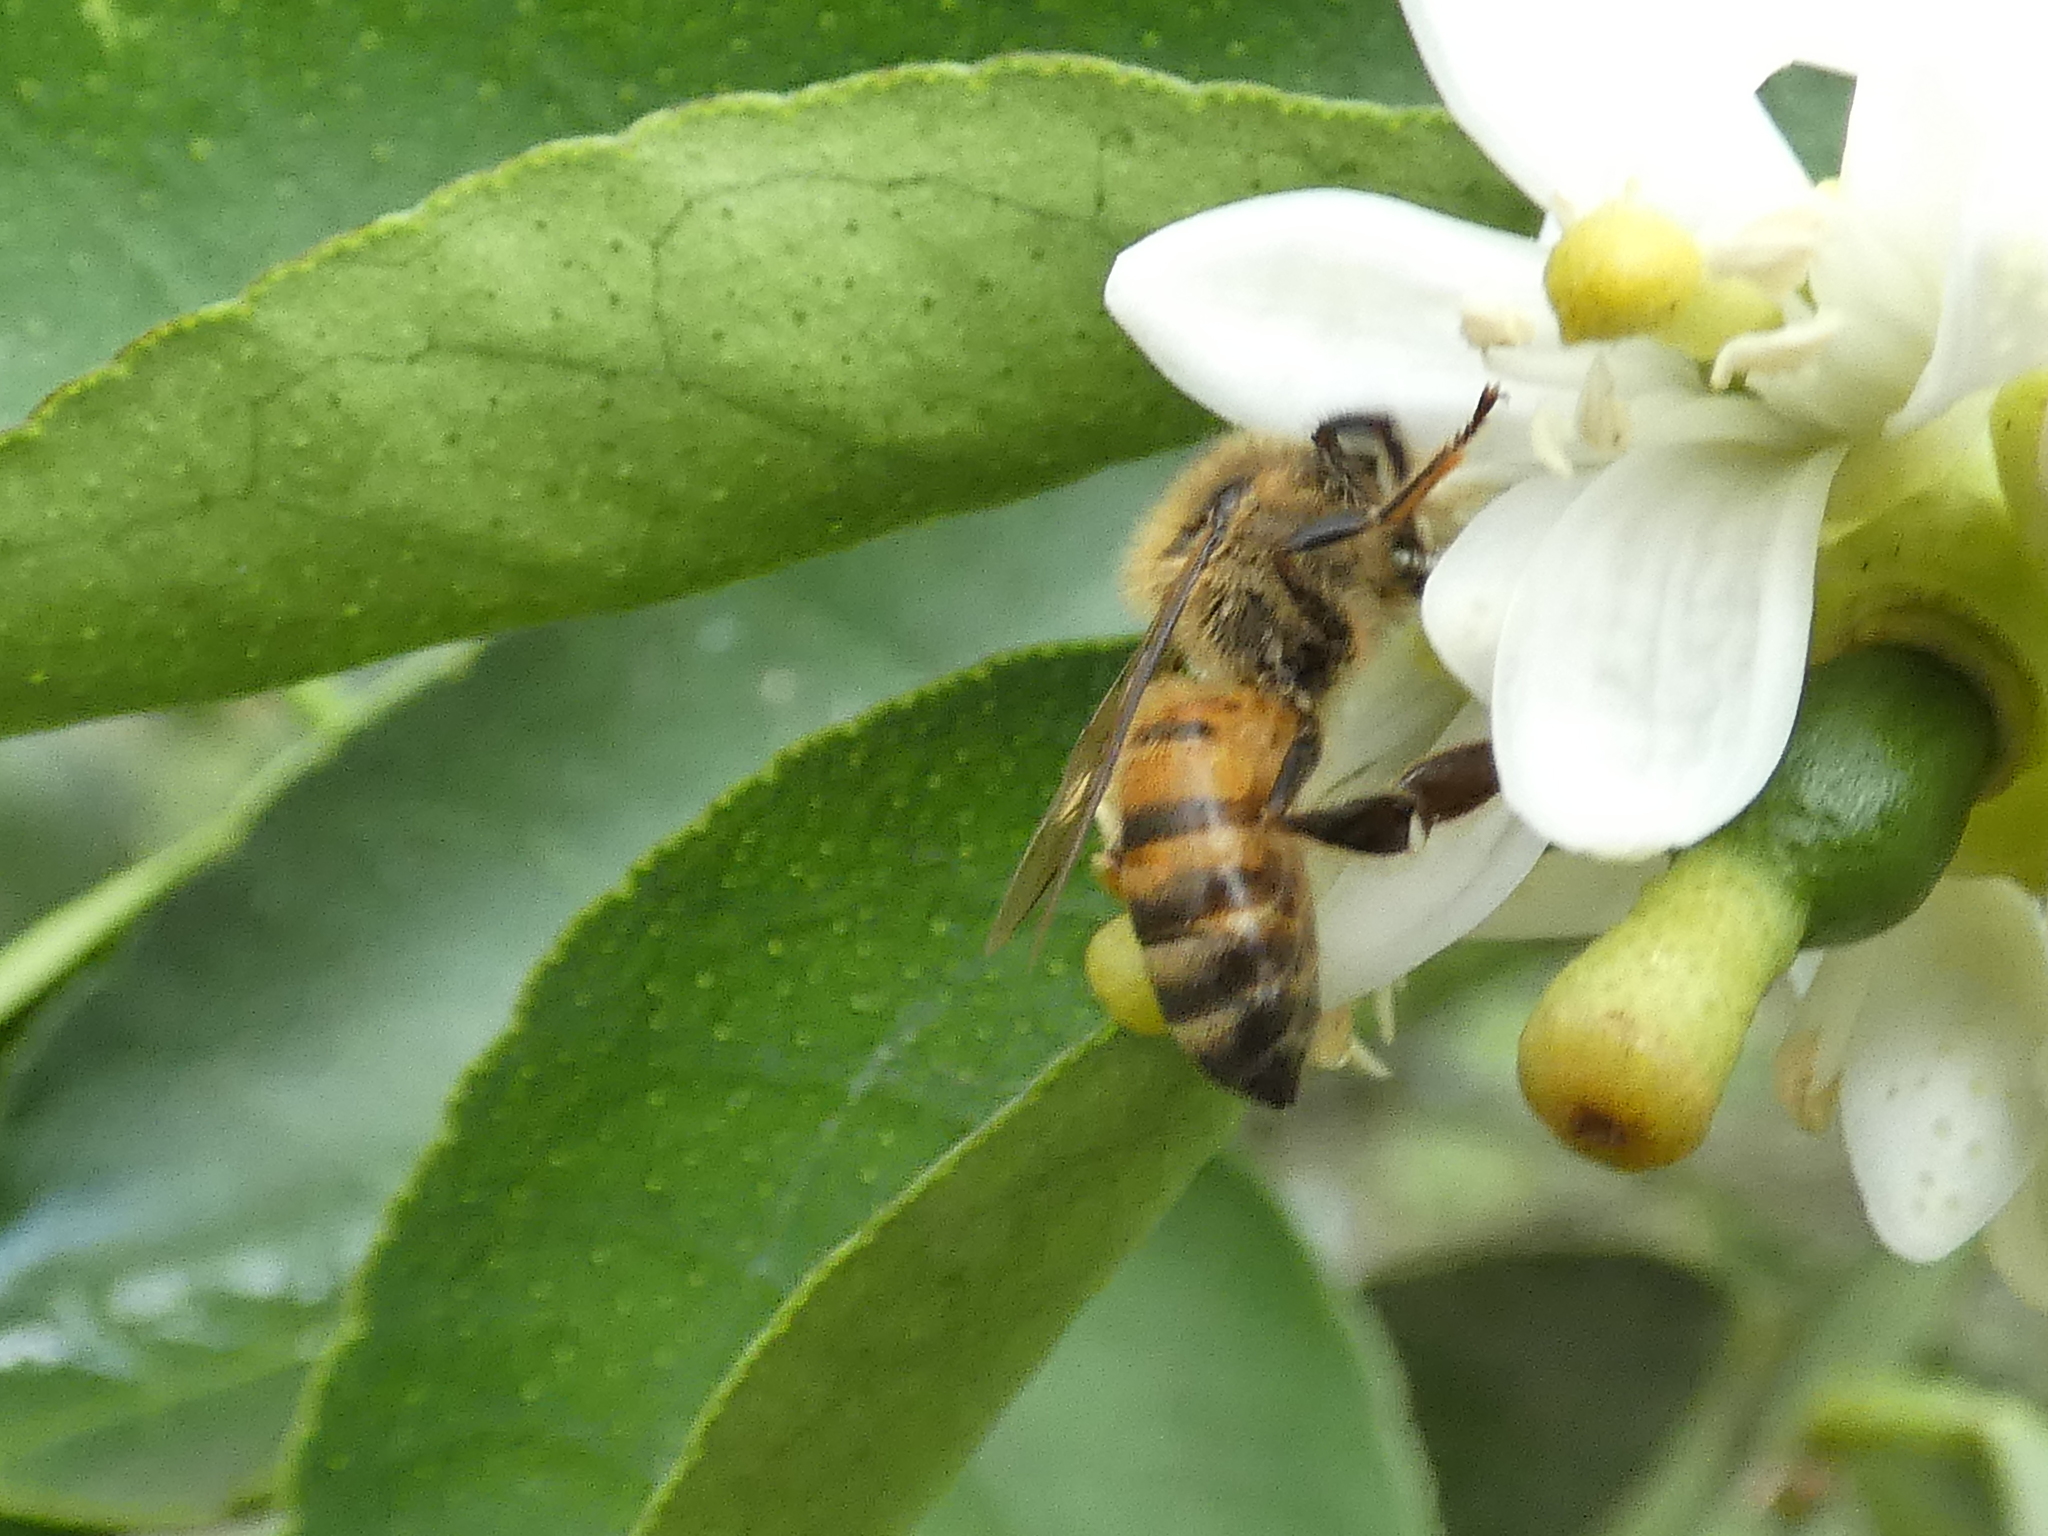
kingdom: Animalia
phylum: Arthropoda
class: Insecta
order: Hymenoptera
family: Apidae
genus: Apis
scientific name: Apis mellifera
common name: Honey bee
